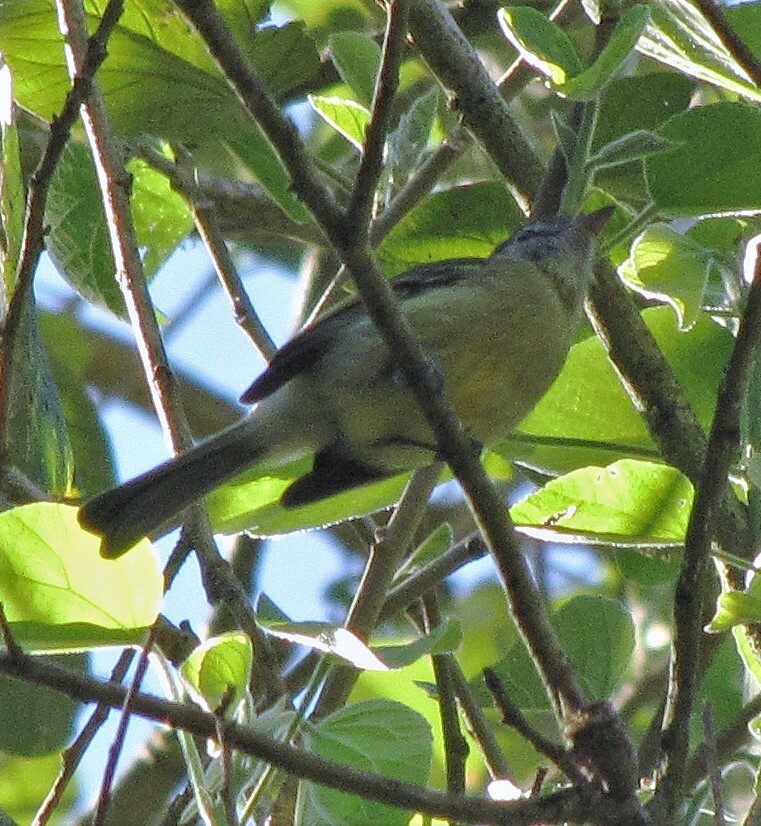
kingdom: Animalia
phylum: Chordata
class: Aves
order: Passeriformes
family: Tyrannidae
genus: Tolmomyias
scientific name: Tolmomyias sulphurescens
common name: Yellow-olive flycatcher
